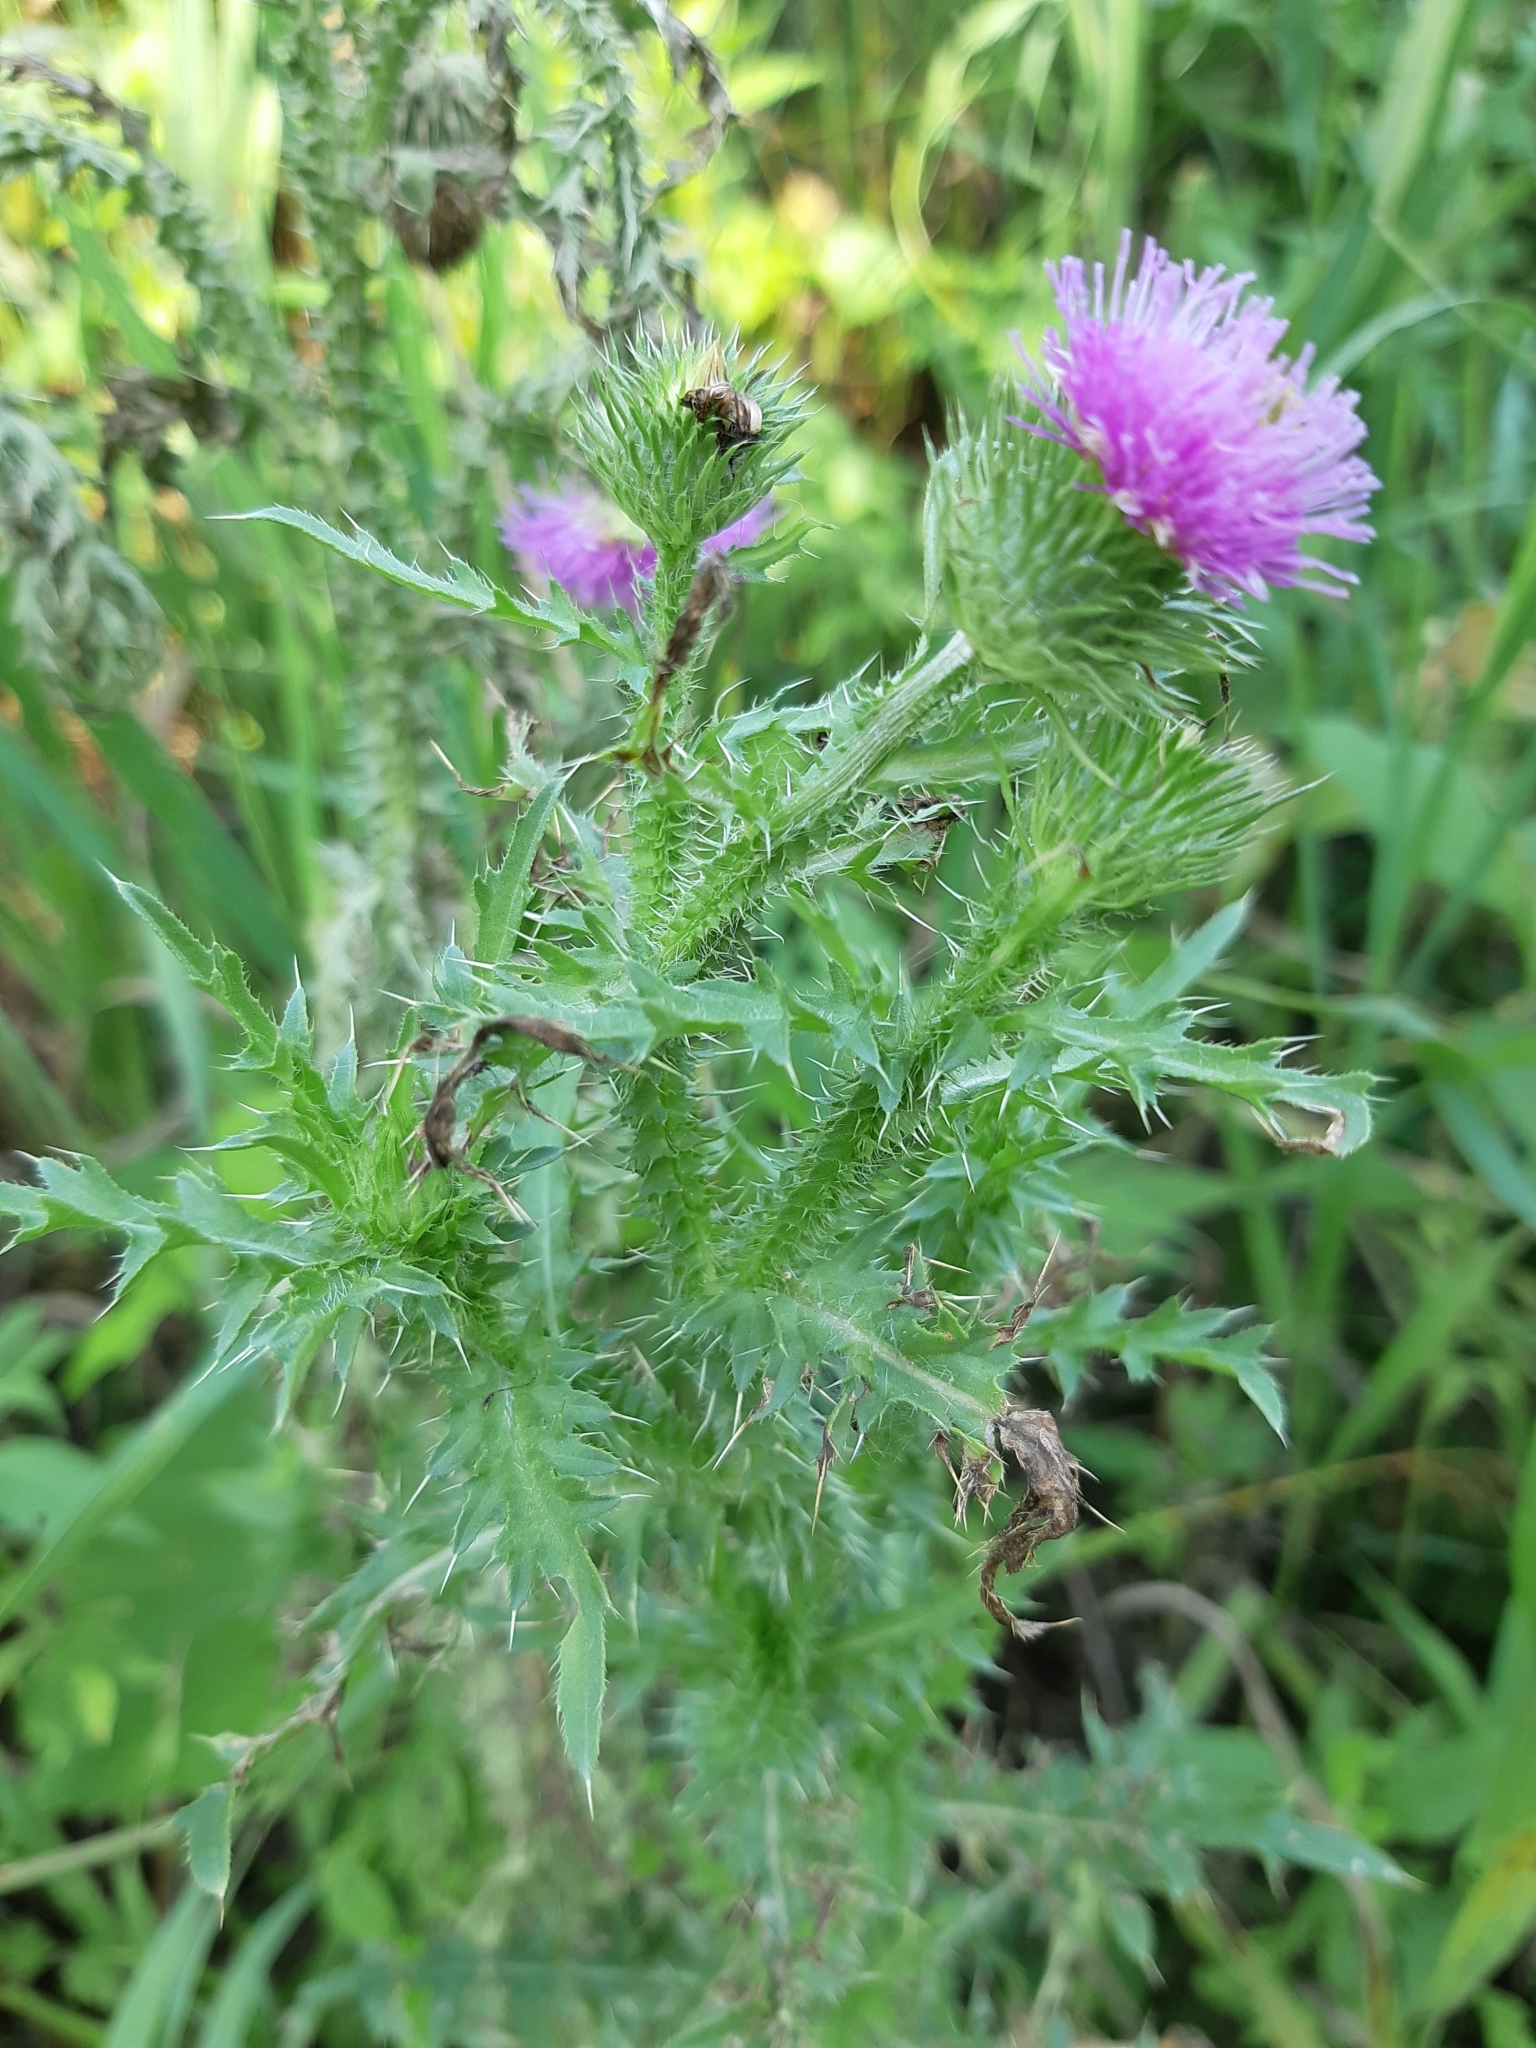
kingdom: Plantae
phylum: Tracheophyta
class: Magnoliopsida
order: Asterales
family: Asteraceae
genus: Carduus
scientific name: Carduus acanthoides
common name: Plumeless thistle
